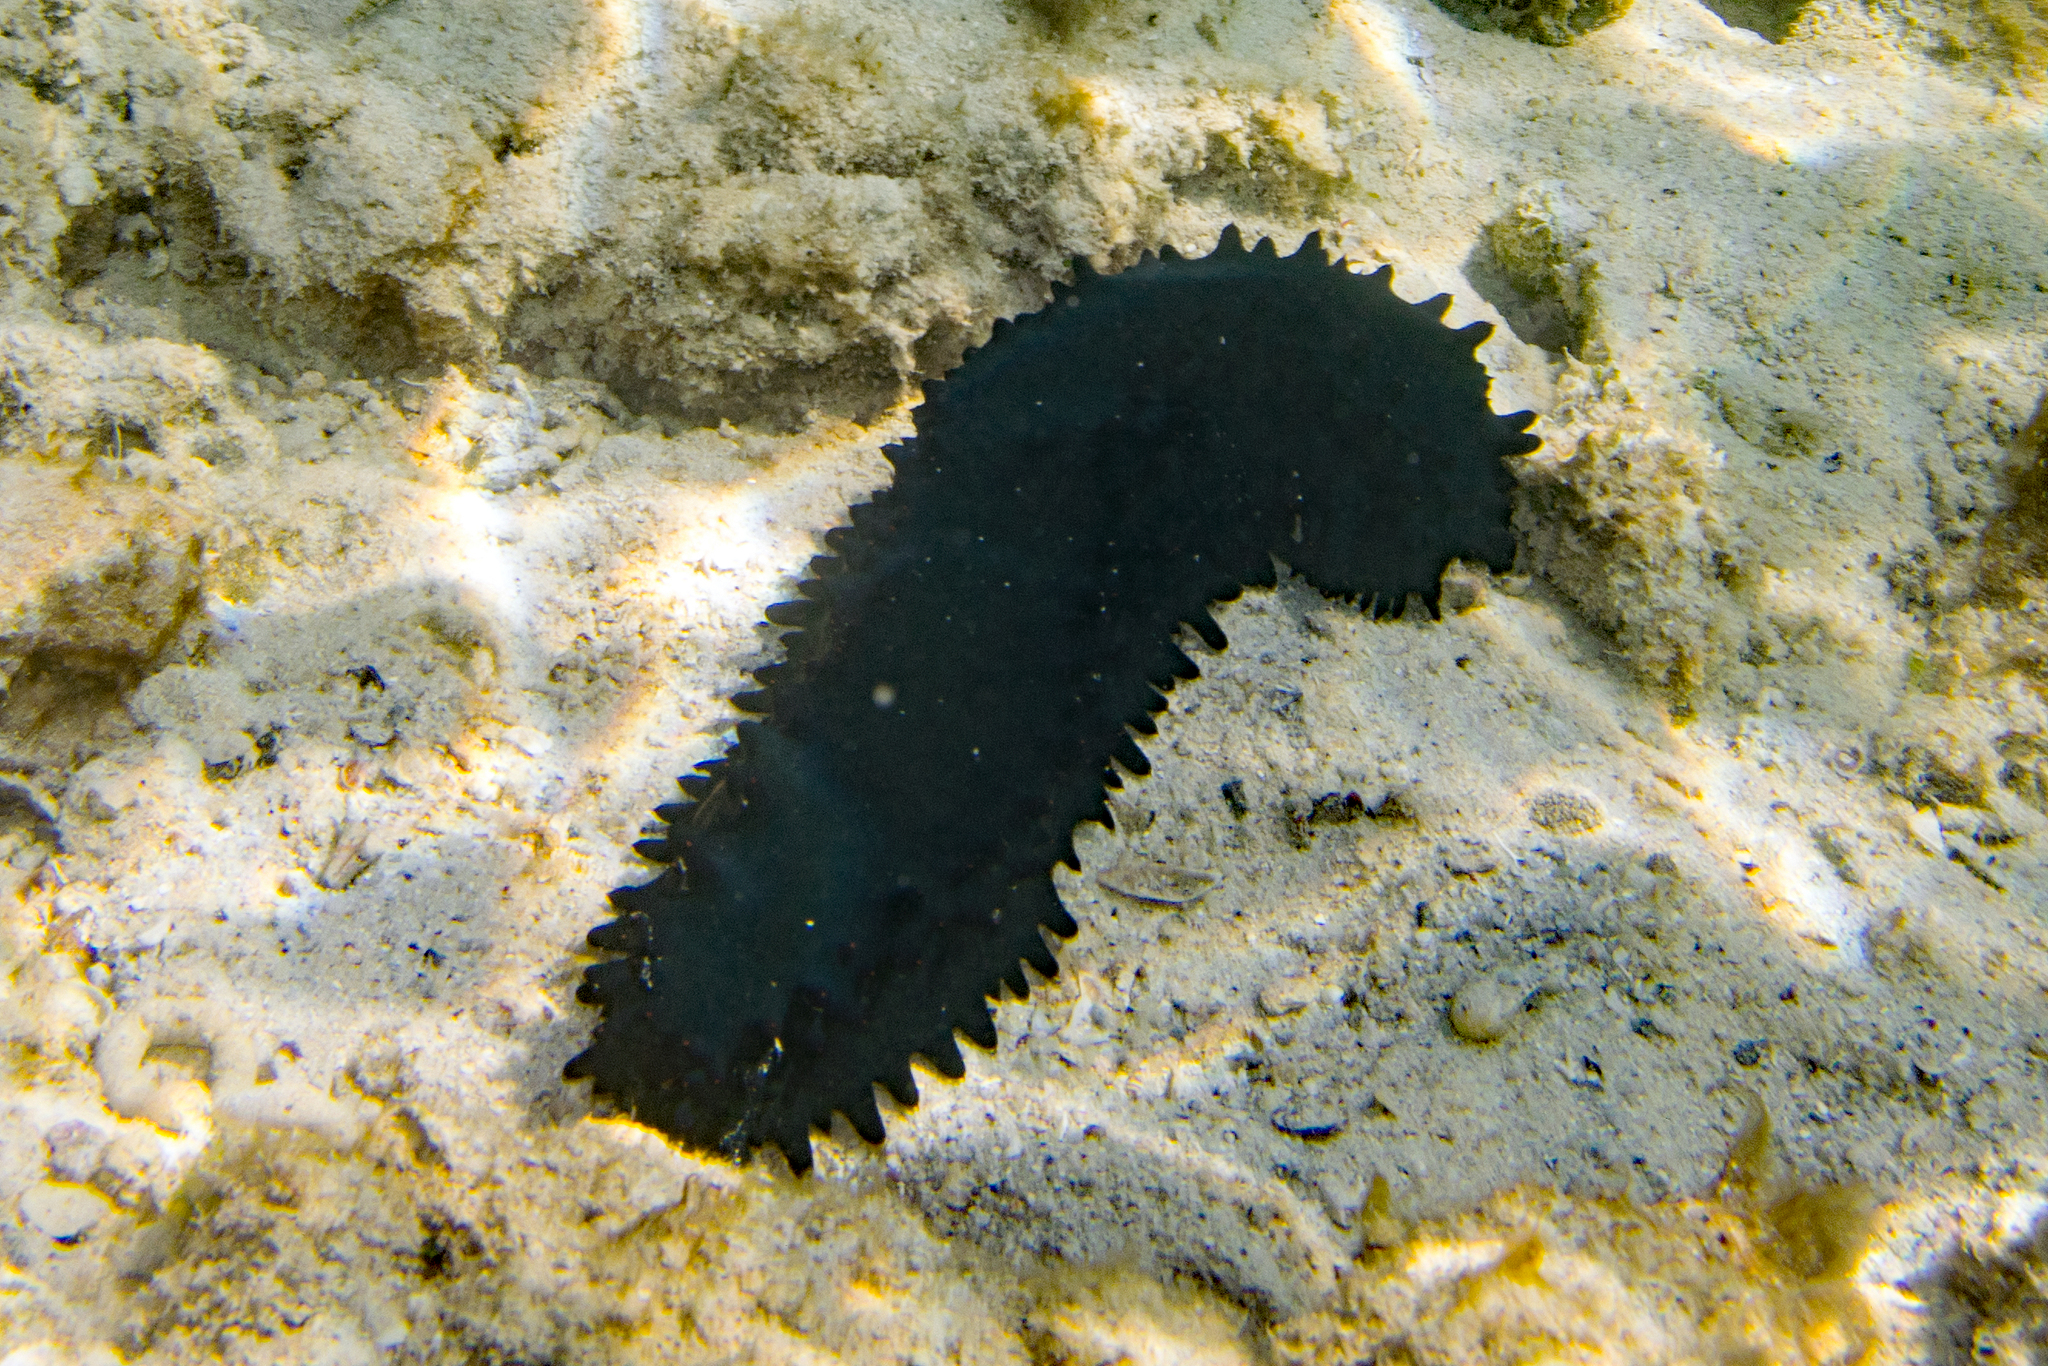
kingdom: Animalia
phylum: Echinodermata
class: Holothuroidea
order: Synallactida
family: Stichopodidae
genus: Stichopus
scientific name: Stichopus chloronotus
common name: Greenfish
